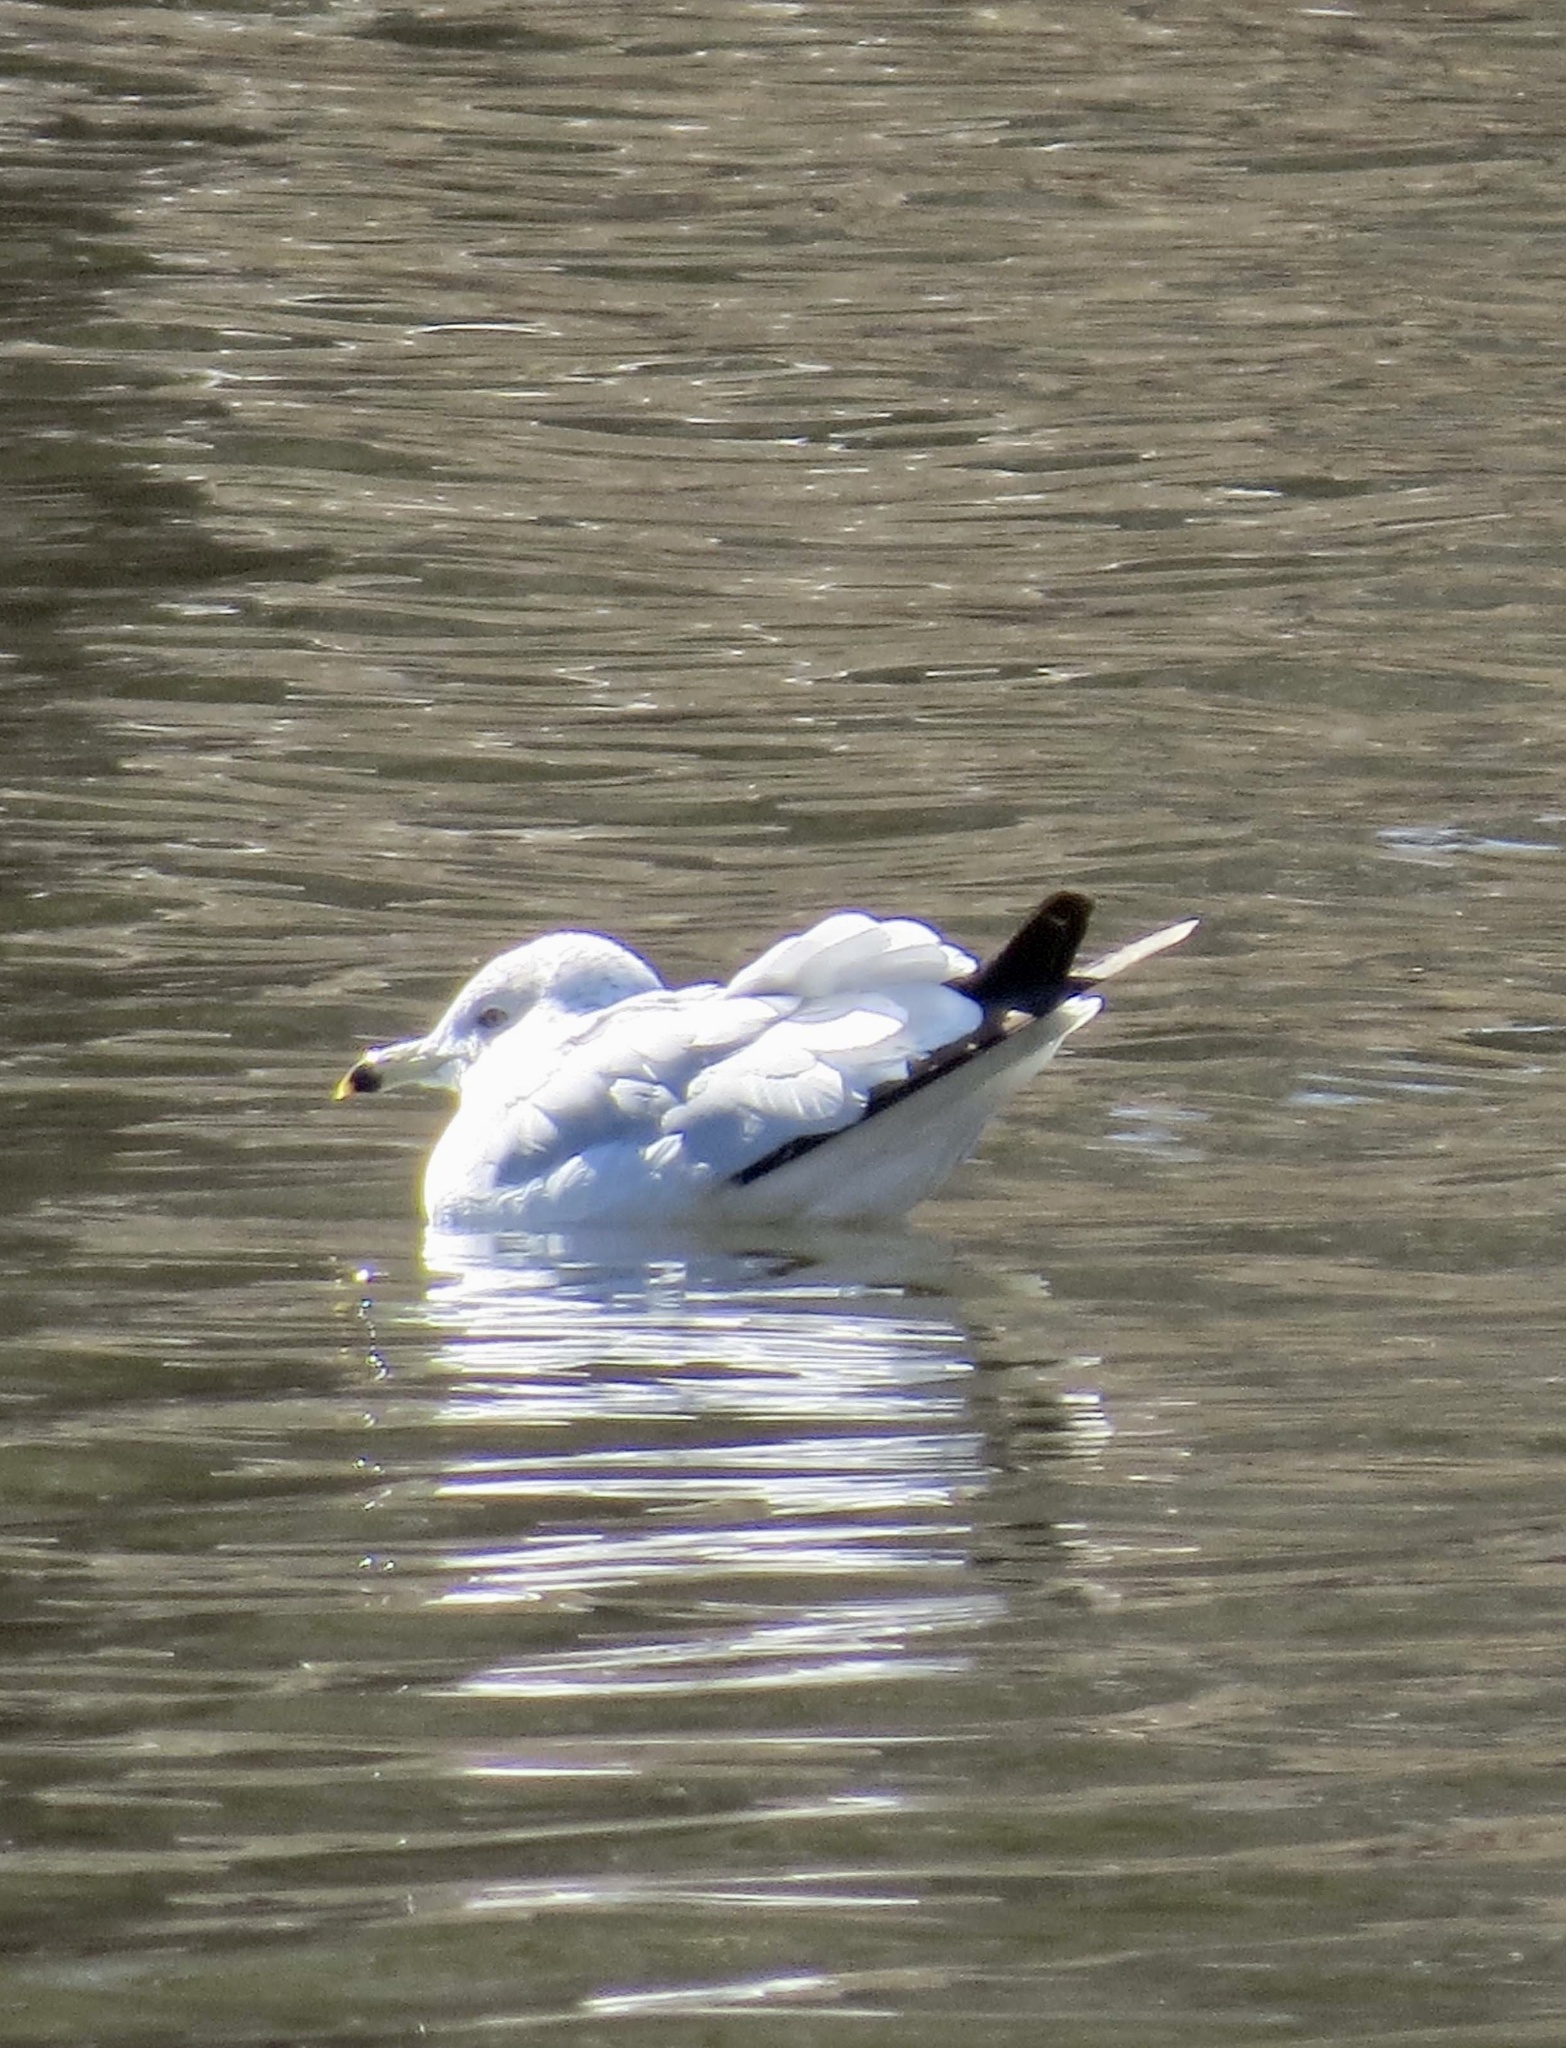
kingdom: Animalia
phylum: Chordata
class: Aves
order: Charadriiformes
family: Laridae
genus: Larus
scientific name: Larus delawarensis
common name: Ring-billed gull
